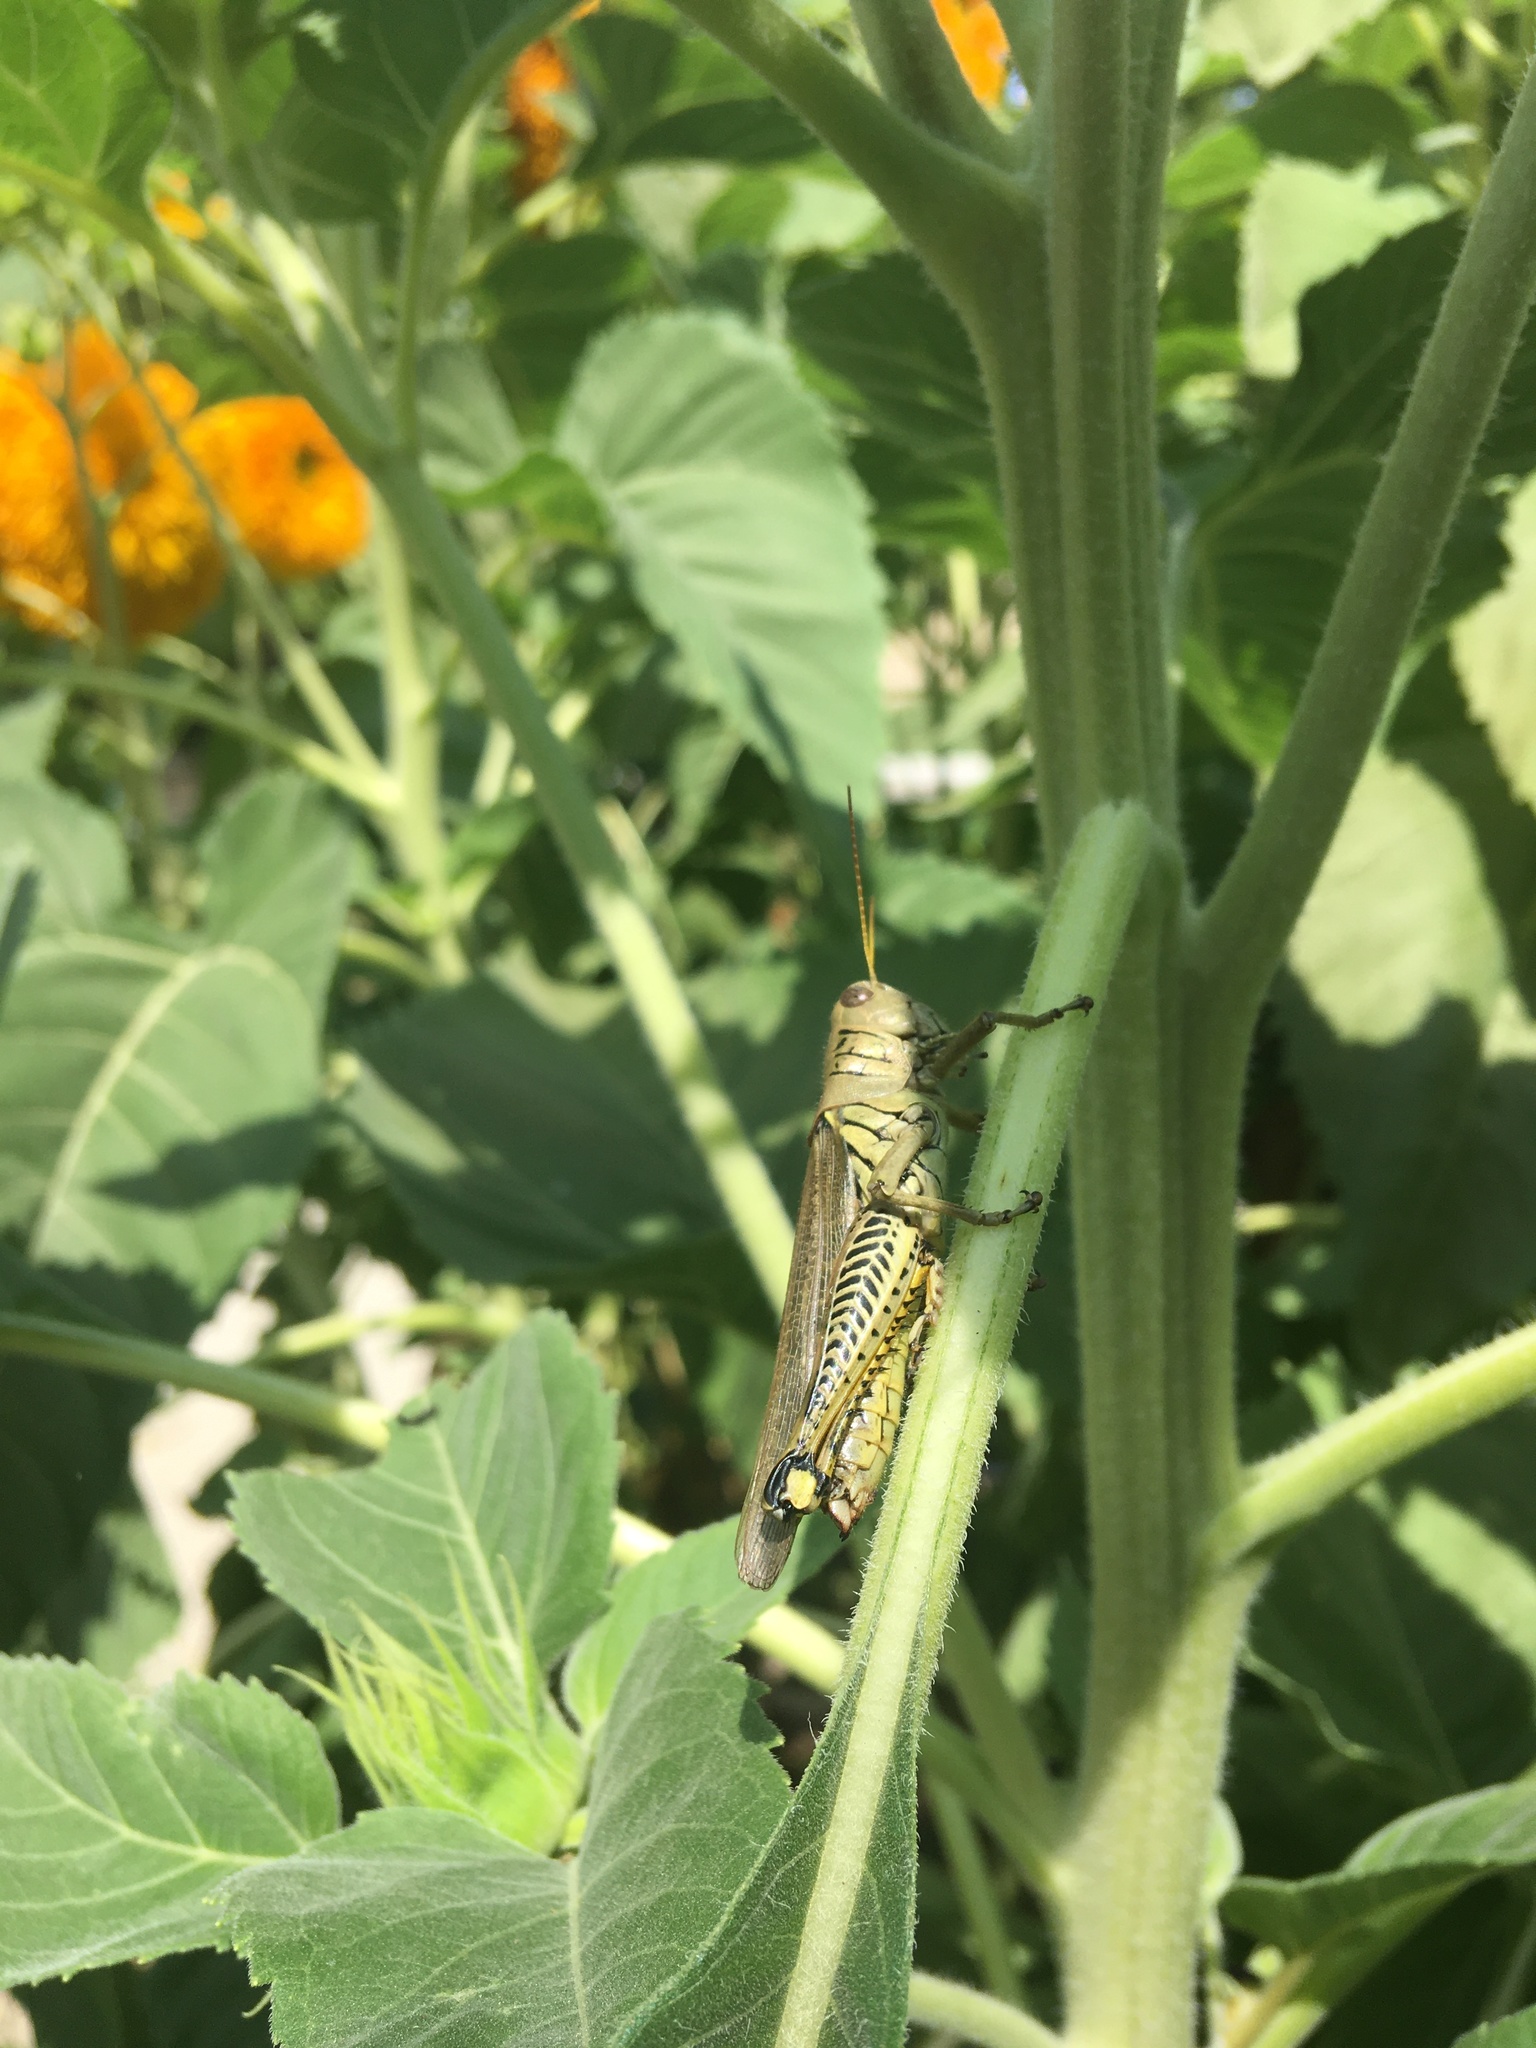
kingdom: Animalia
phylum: Arthropoda
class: Insecta
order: Orthoptera
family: Acrididae
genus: Melanoplus
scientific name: Melanoplus differentialis
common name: Differential grasshopper
